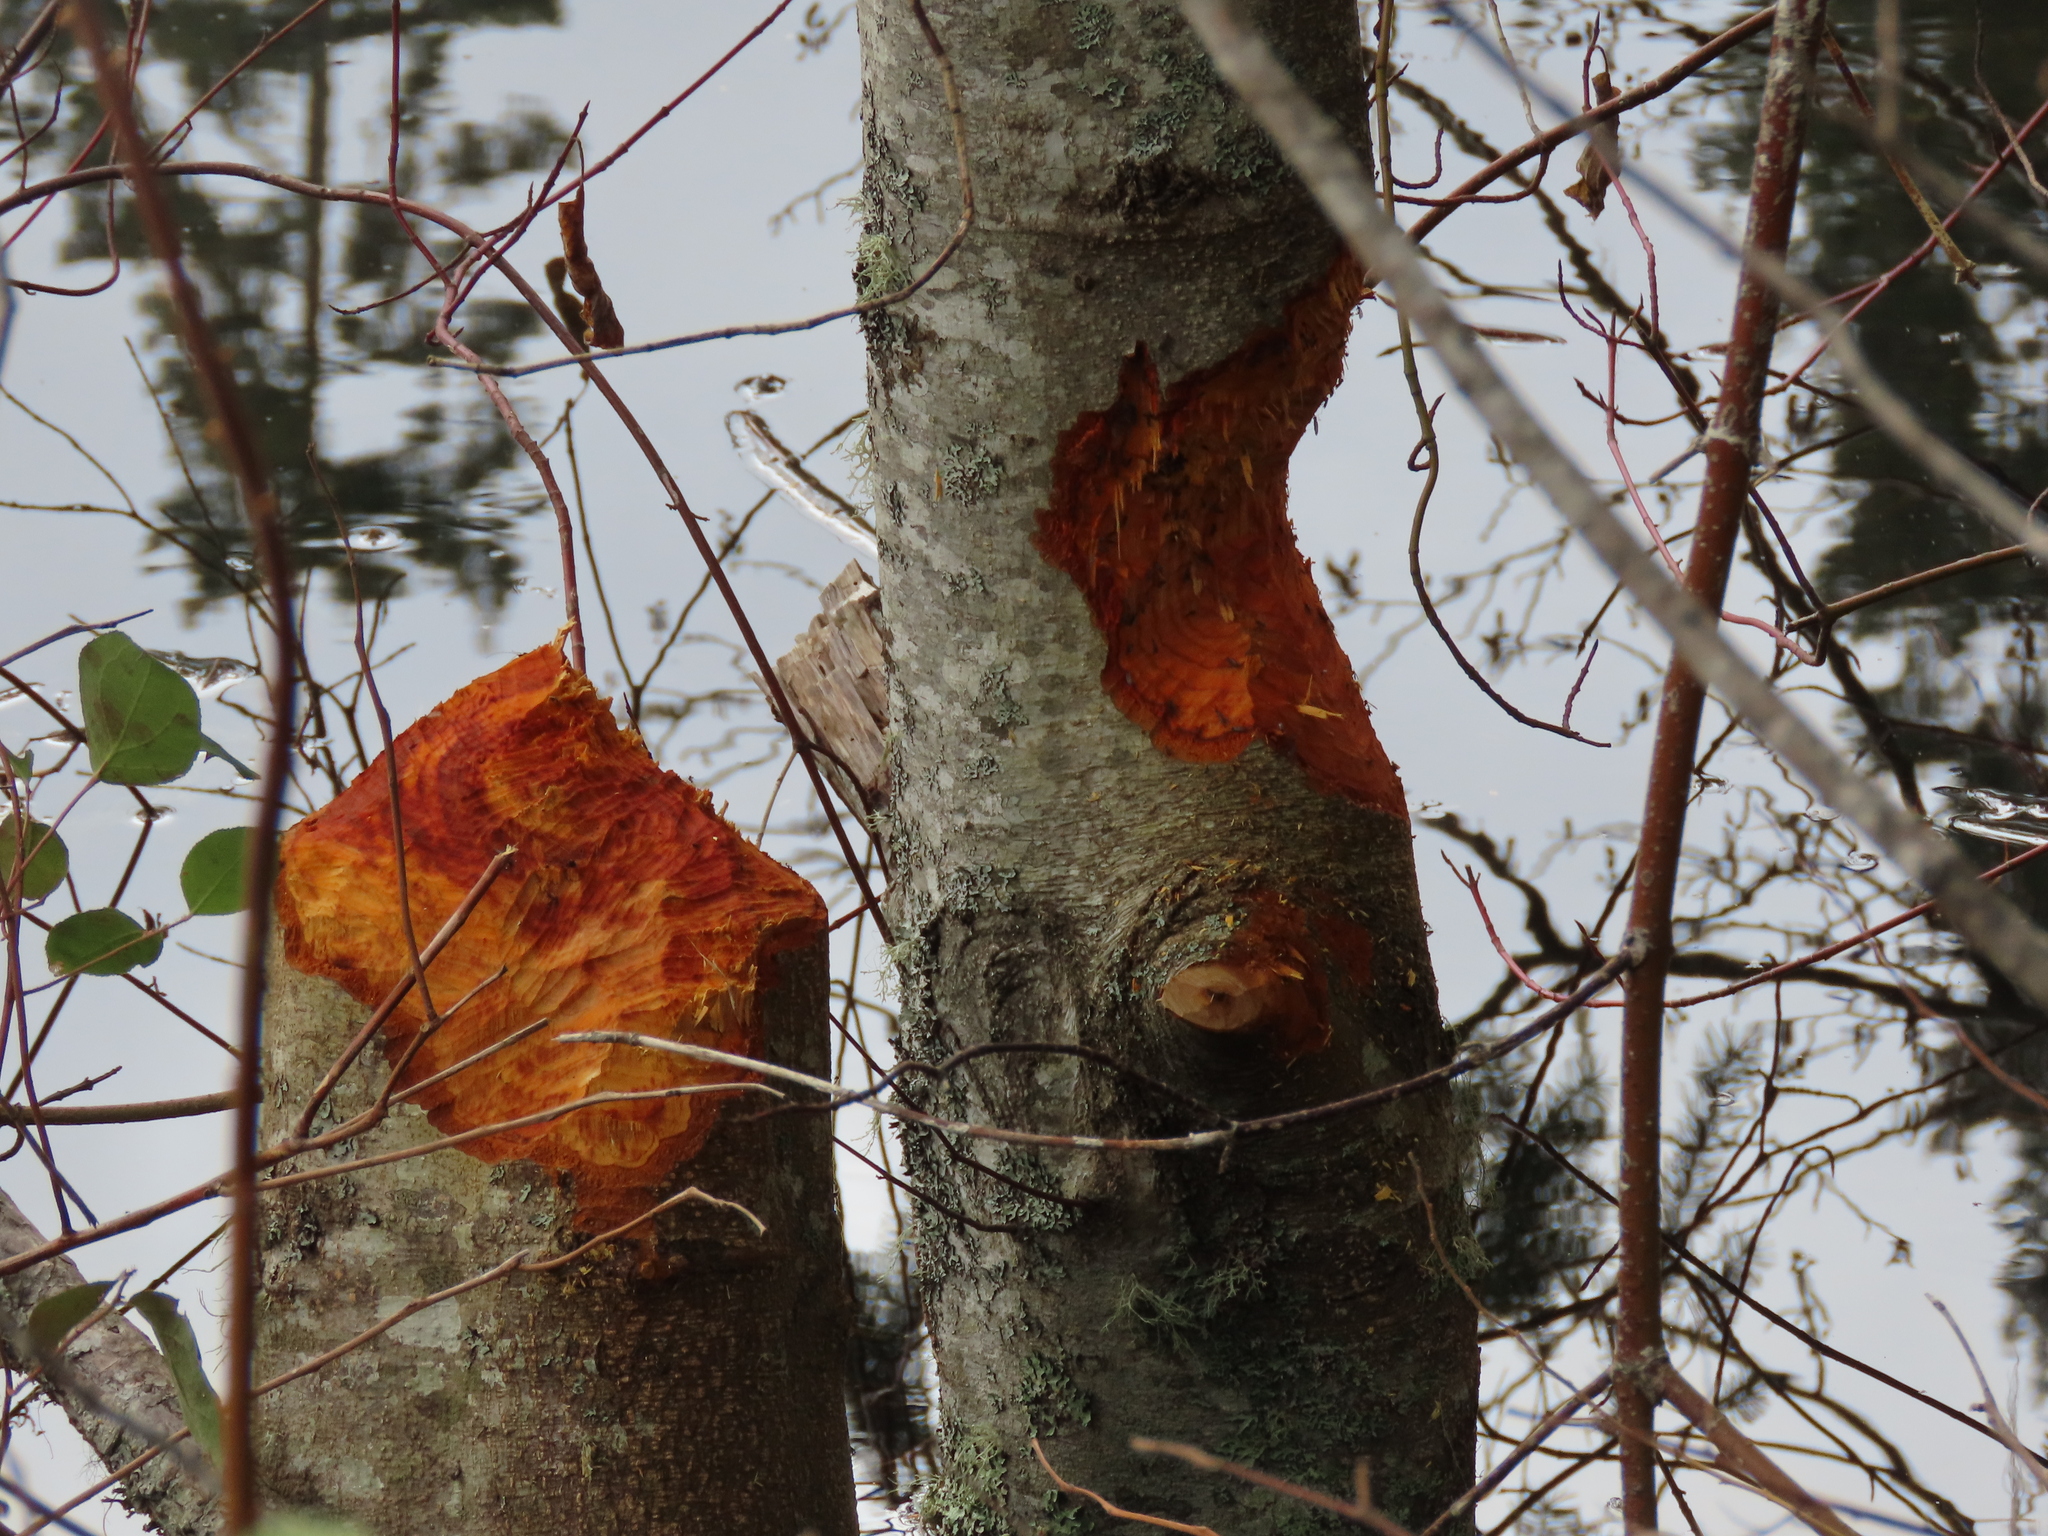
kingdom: Animalia
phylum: Chordata
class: Mammalia
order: Rodentia
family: Castoridae
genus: Castor
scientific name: Castor canadensis
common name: American beaver
